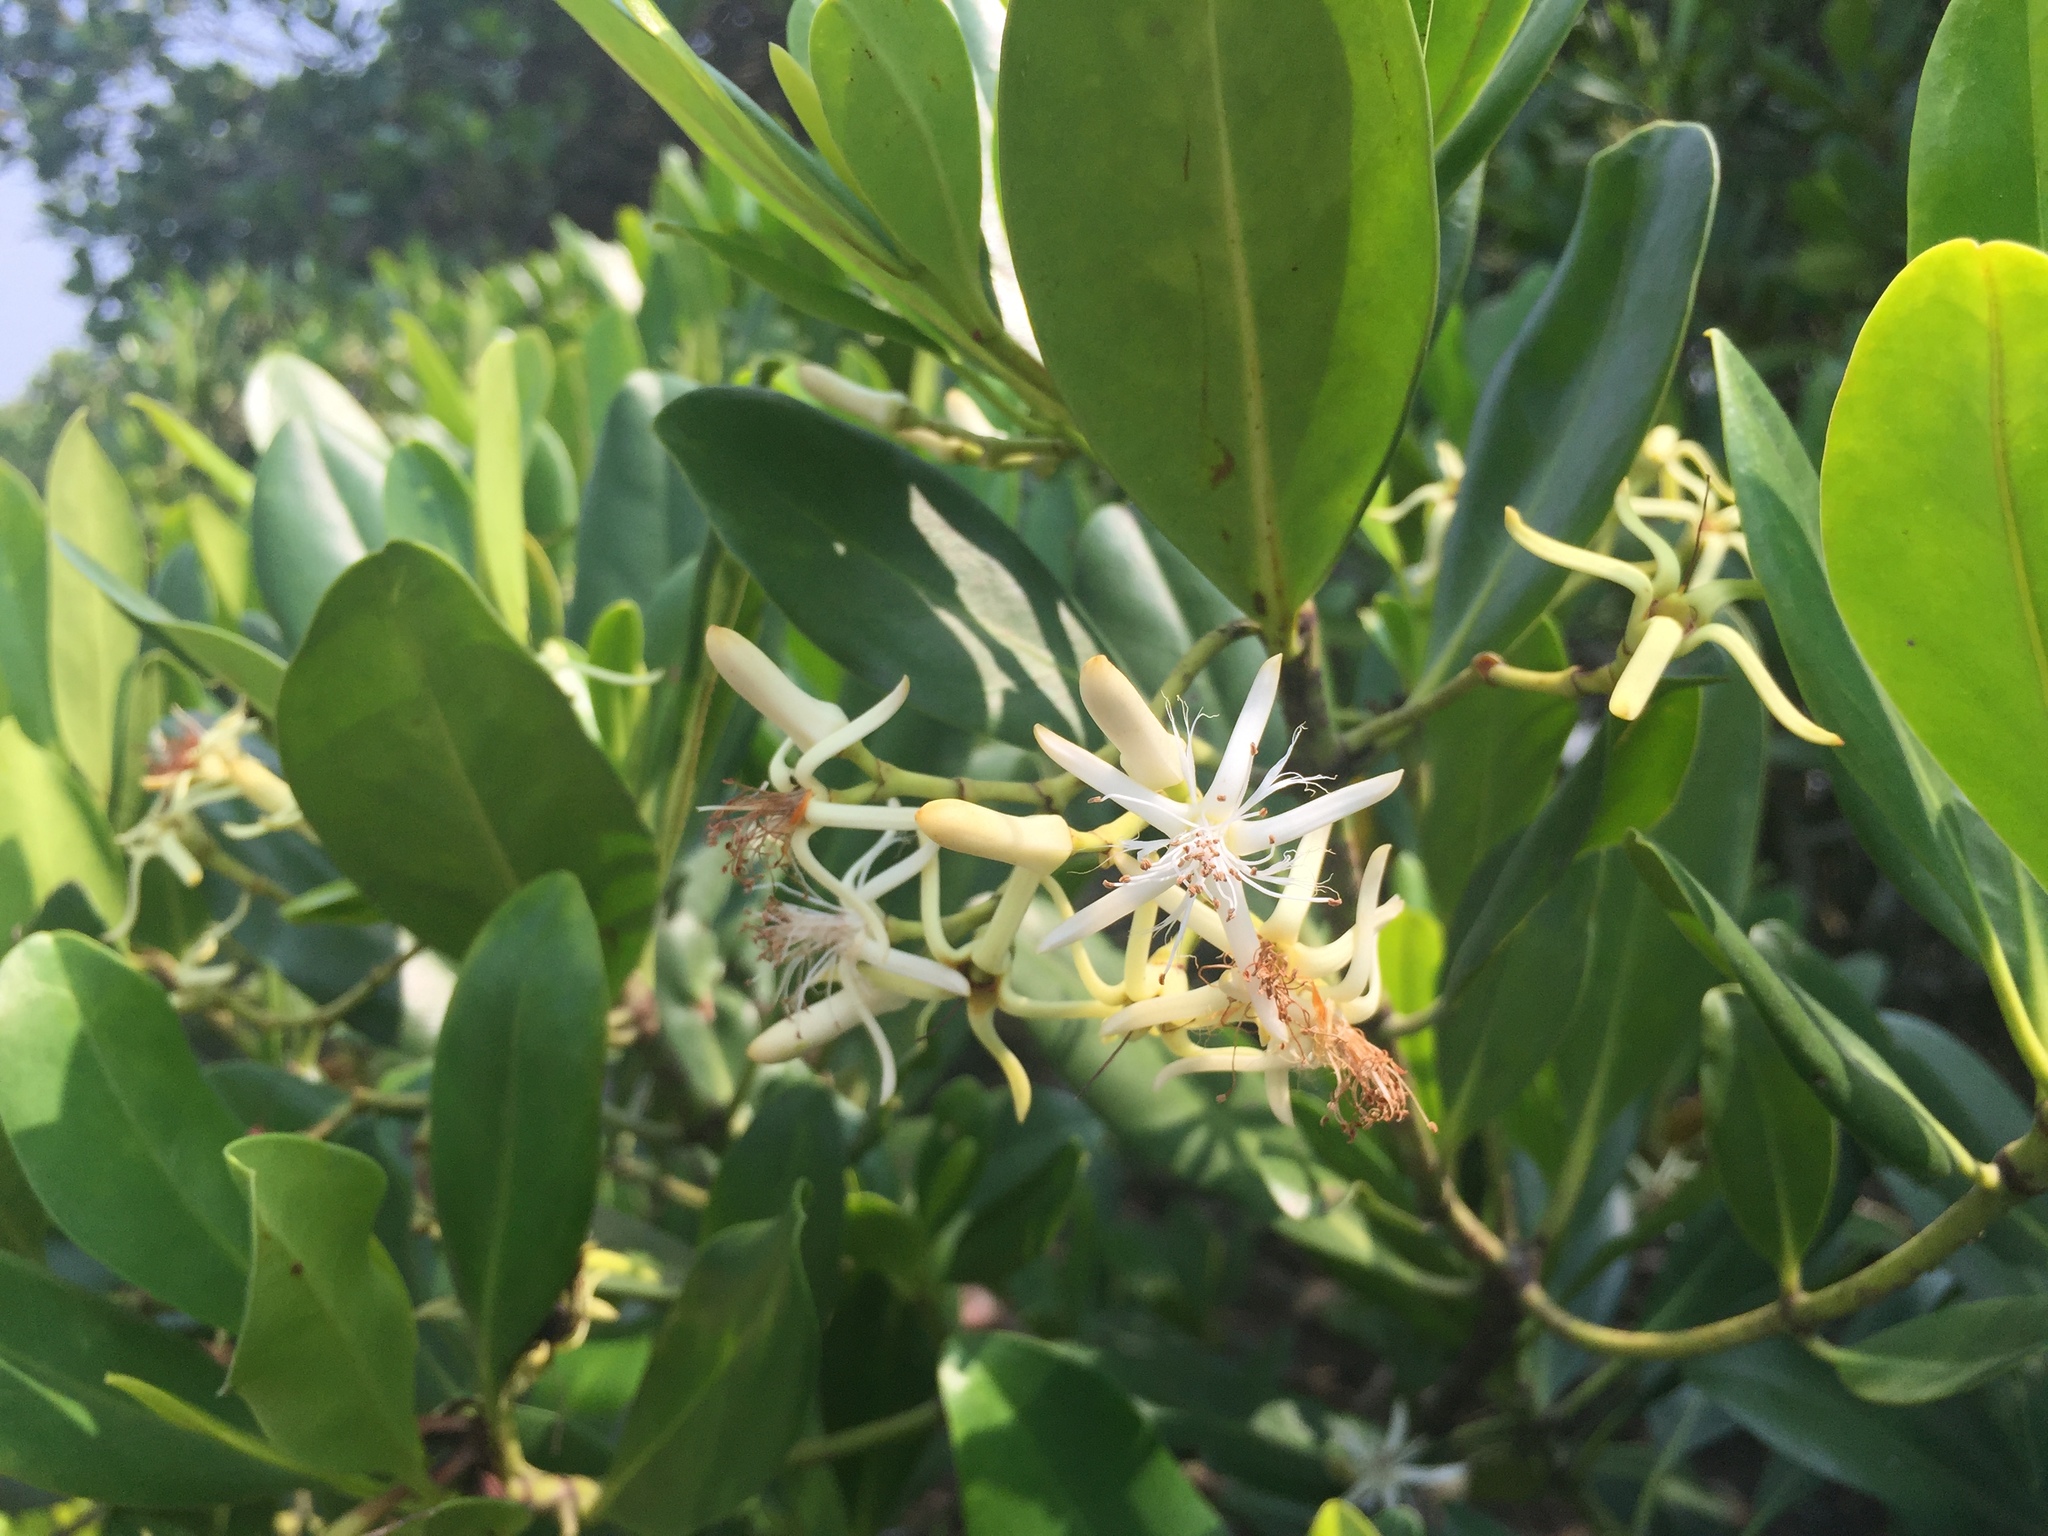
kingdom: Plantae
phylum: Tracheophyta
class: Magnoliopsida
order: Malpighiales
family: Rhizophoraceae
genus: Kandelia
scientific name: Kandelia obovata
